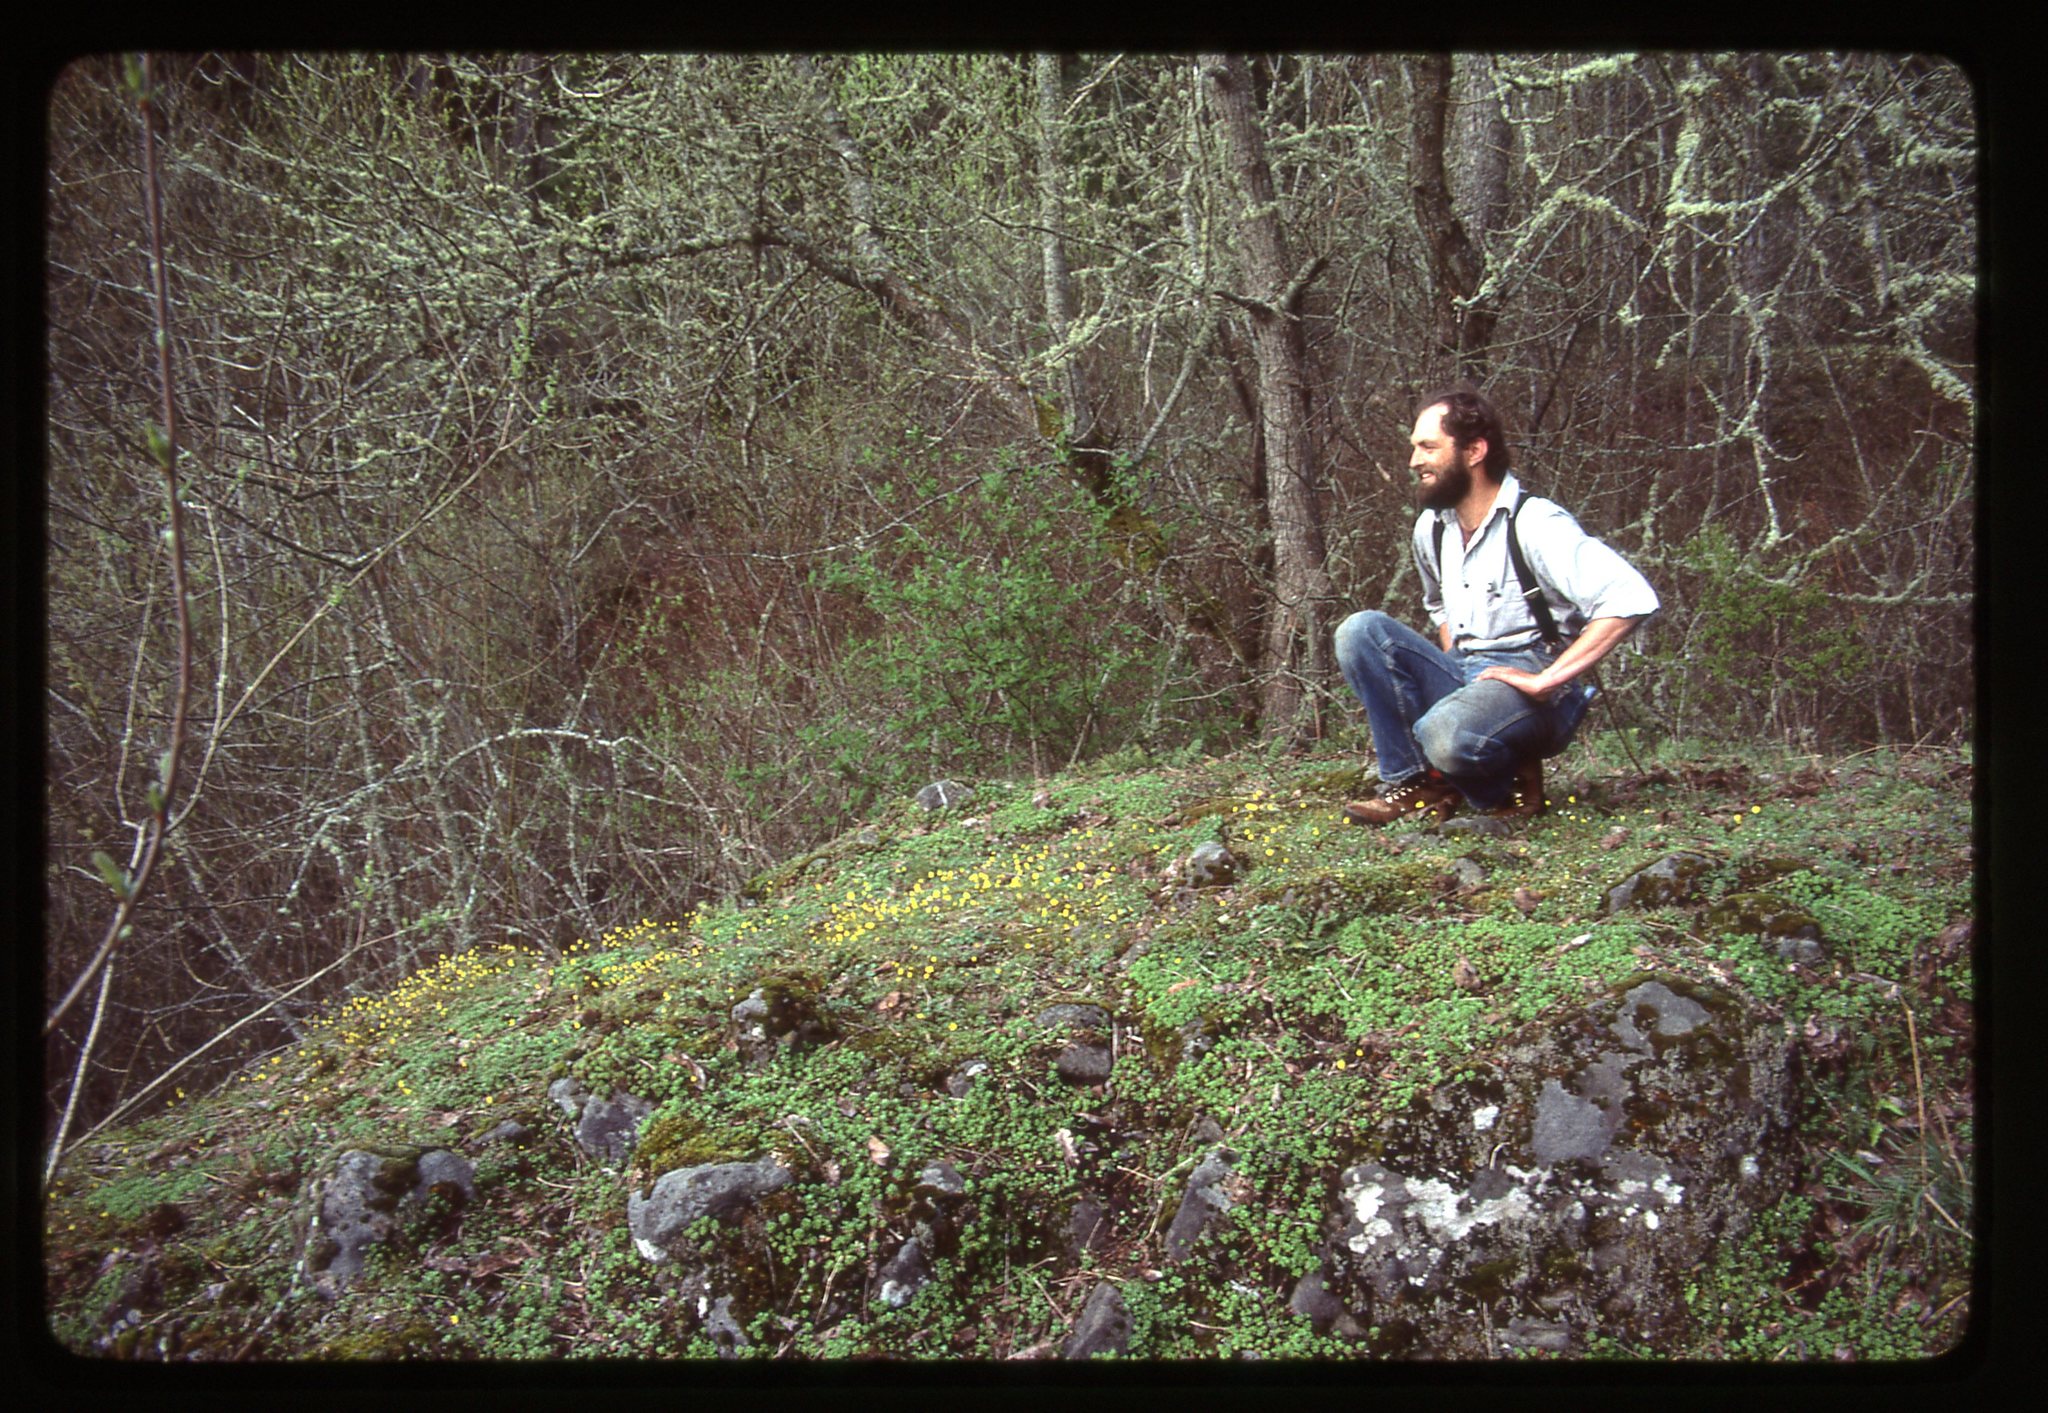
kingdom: Plantae
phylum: Tracheophyta
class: Magnoliopsida
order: Asterales
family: Asteraceae
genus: Crocidium
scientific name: Crocidium multicaule
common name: Common spring gold
